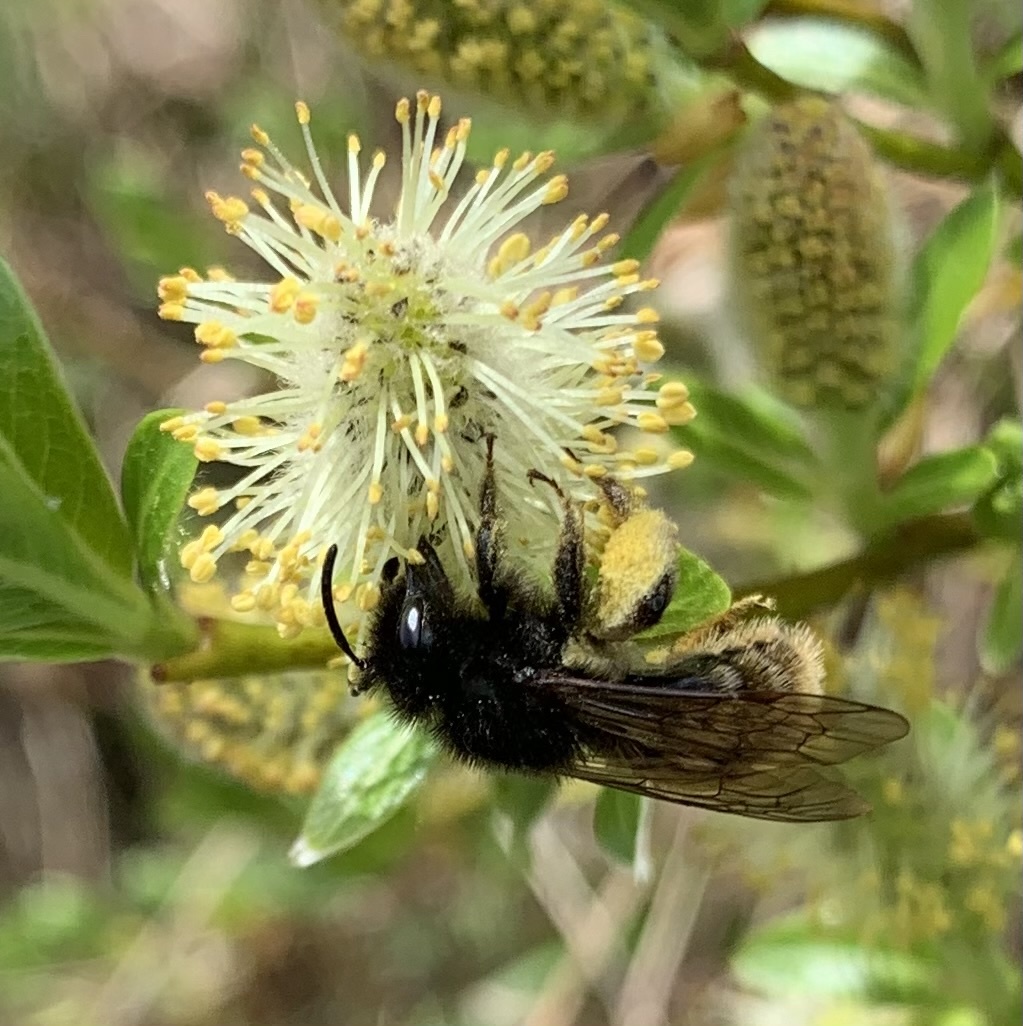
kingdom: Animalia
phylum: Arthropoda
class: Insecta
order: Hymenoptera
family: Andrenidae
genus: Andrena
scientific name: Andrena rogenhoferi
